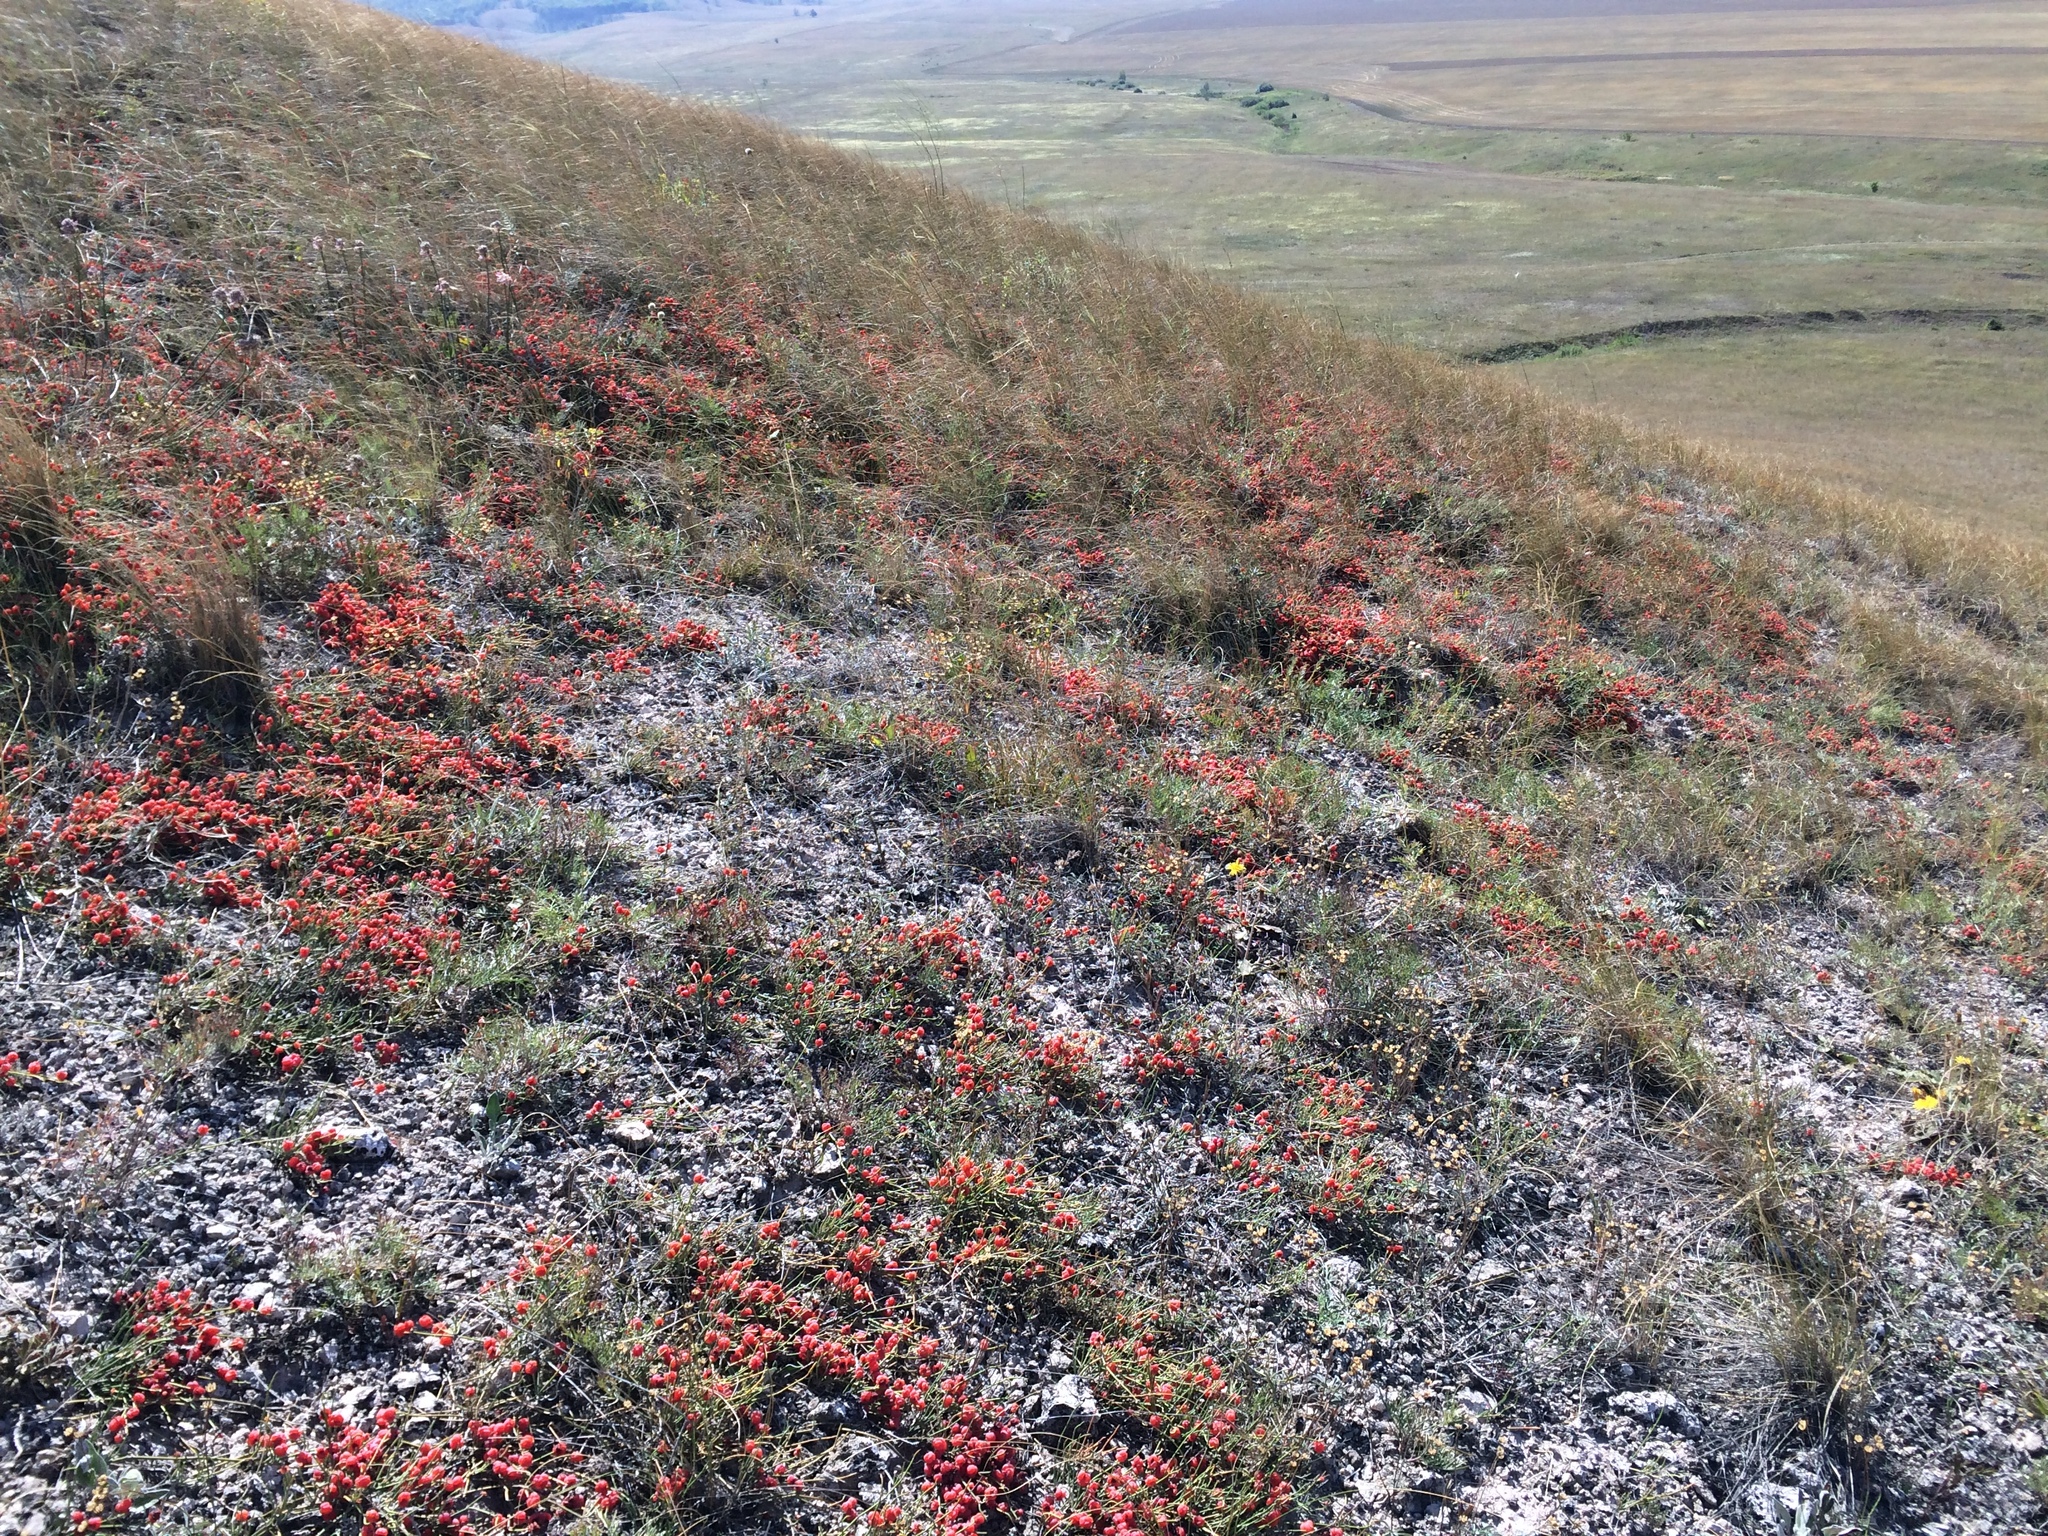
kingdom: Plantae
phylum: Tracheophyta
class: Gnetopsida
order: Ephedrales
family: Ephedraceae
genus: Ephedra
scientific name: Ephedra distachya
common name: Sea grape
